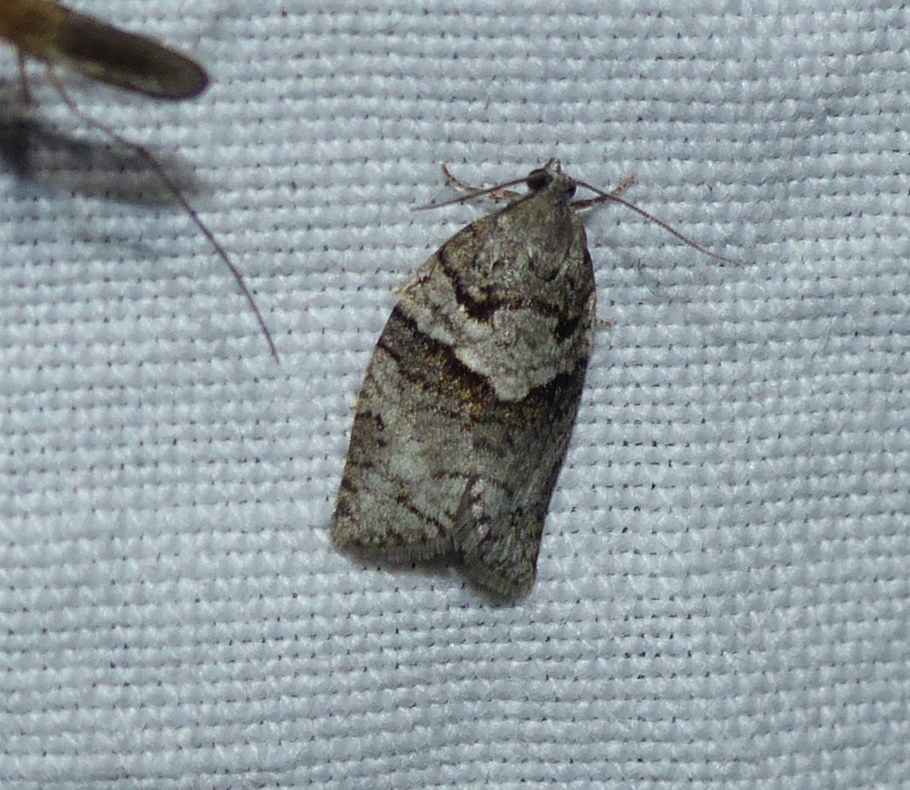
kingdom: Animalia
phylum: Arthropoda
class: Insecta
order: Lepidoptera
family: Tortricidae
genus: Syndemis
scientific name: Syndemis afflictana
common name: Gray leafroller moth
